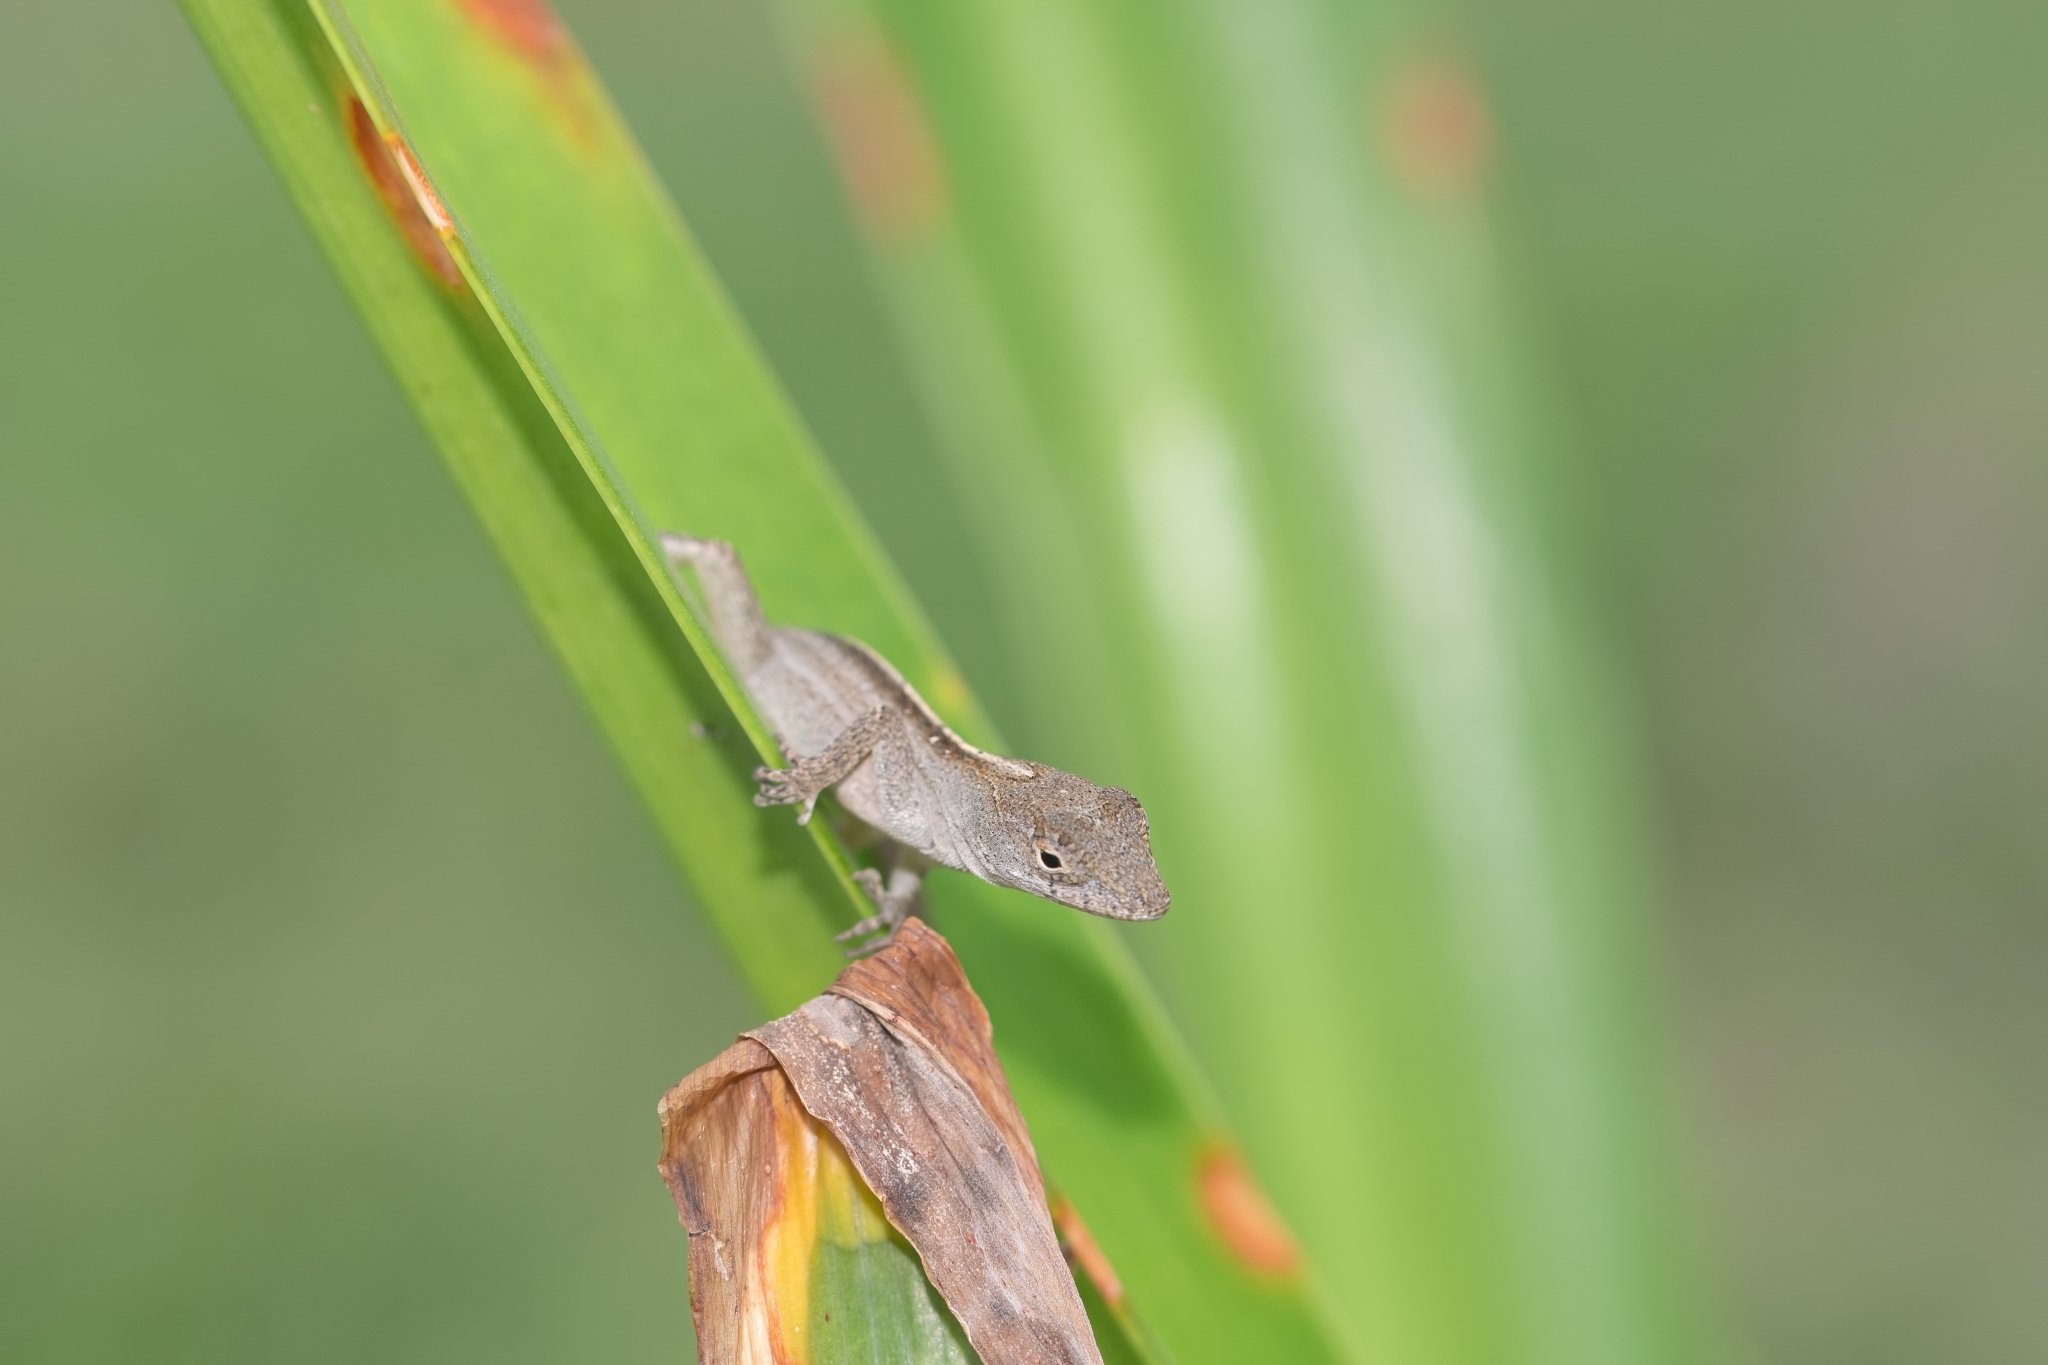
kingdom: Animalia
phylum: Chordata
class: Squamata
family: Dactyloidae
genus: Anolis
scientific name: Anolis sagrei
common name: Brown anole
